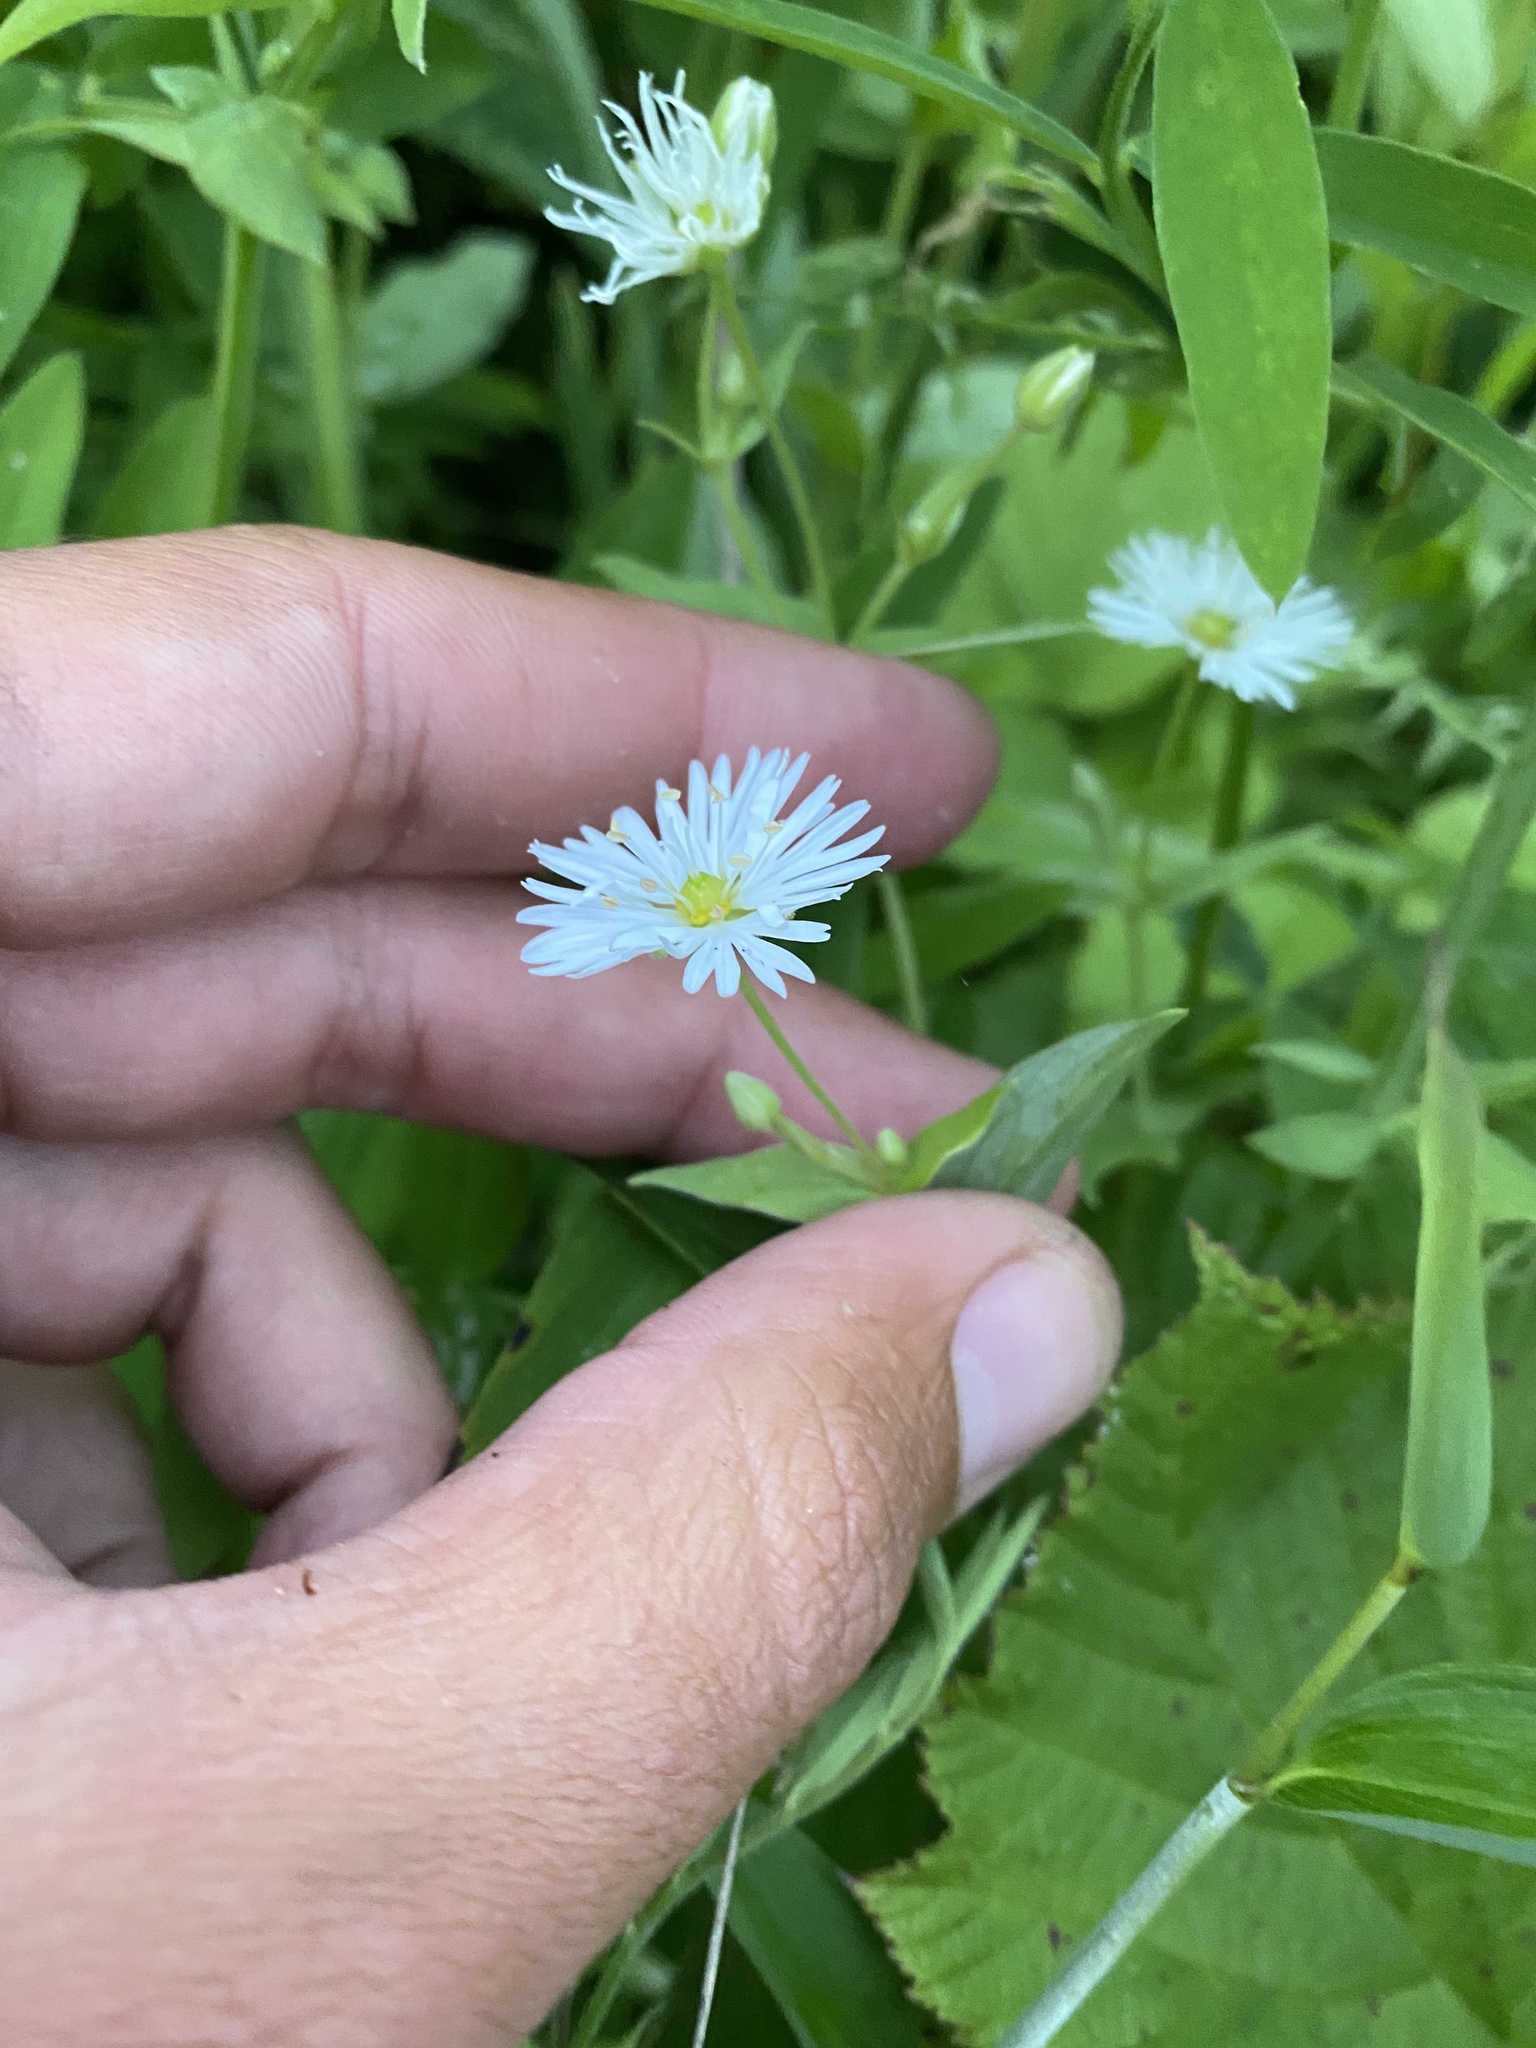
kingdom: Plantae
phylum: Tracheophyta
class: Magnoliopsida
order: Caryophyllales
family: Caryophyllaceae
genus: Stellaria
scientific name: Stellaria radians
